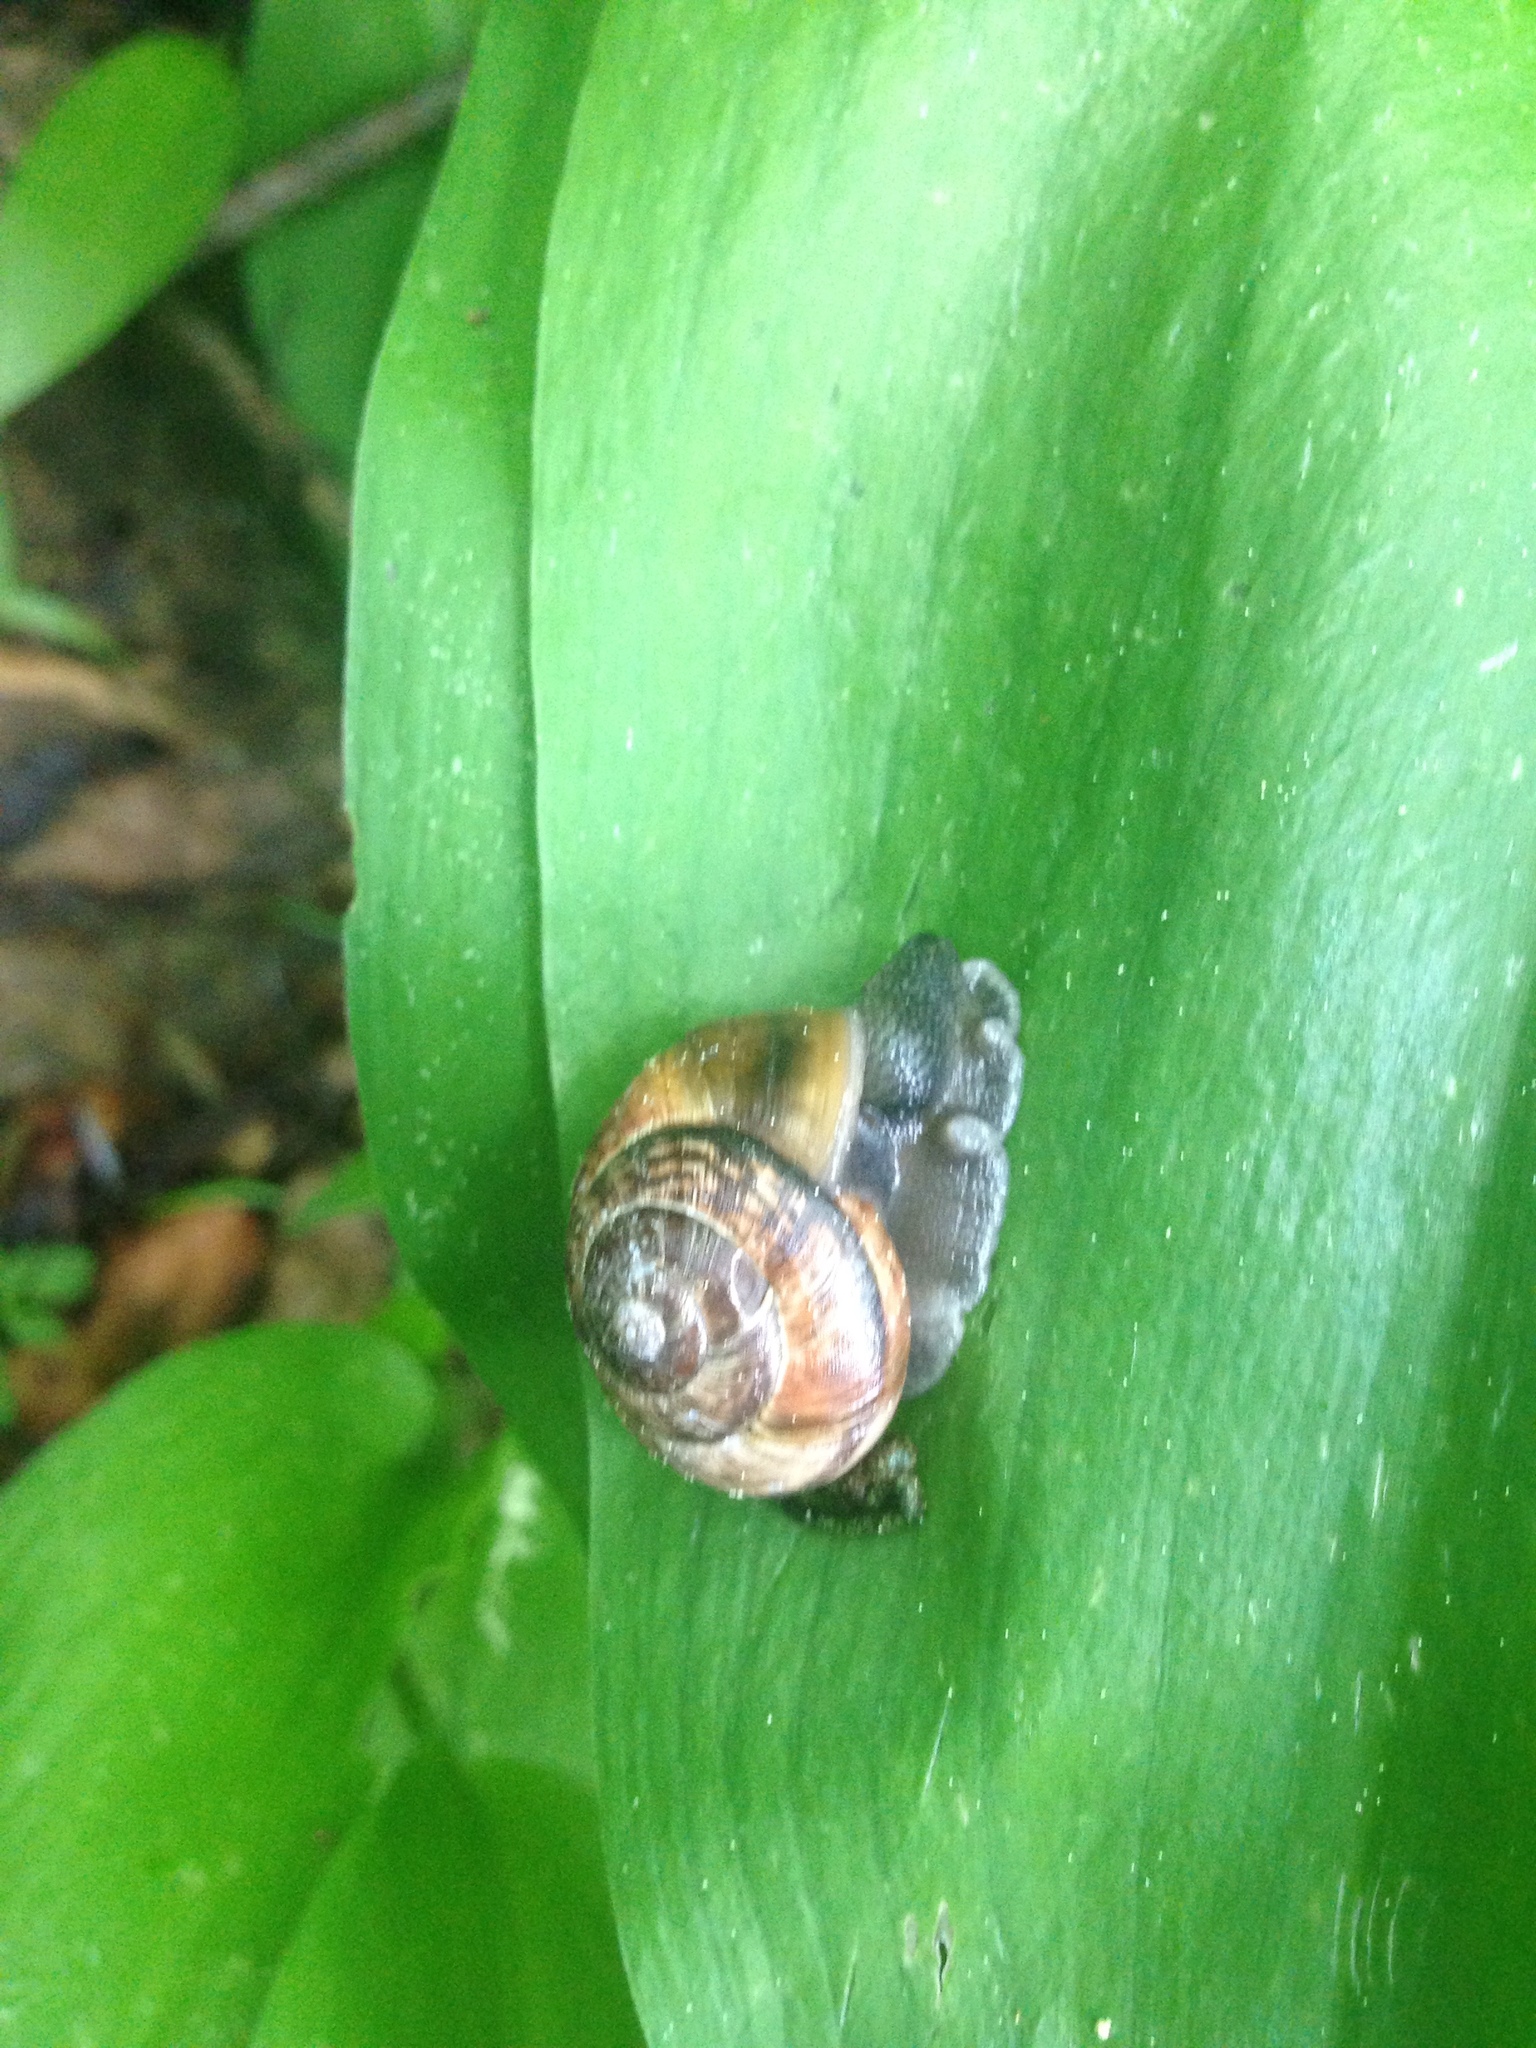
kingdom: Animalia
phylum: Mollusca
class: Gastropoda
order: Stylommatophora
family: Helicidae
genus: Arianta
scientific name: Arianta arbustorum
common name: Copse snail
